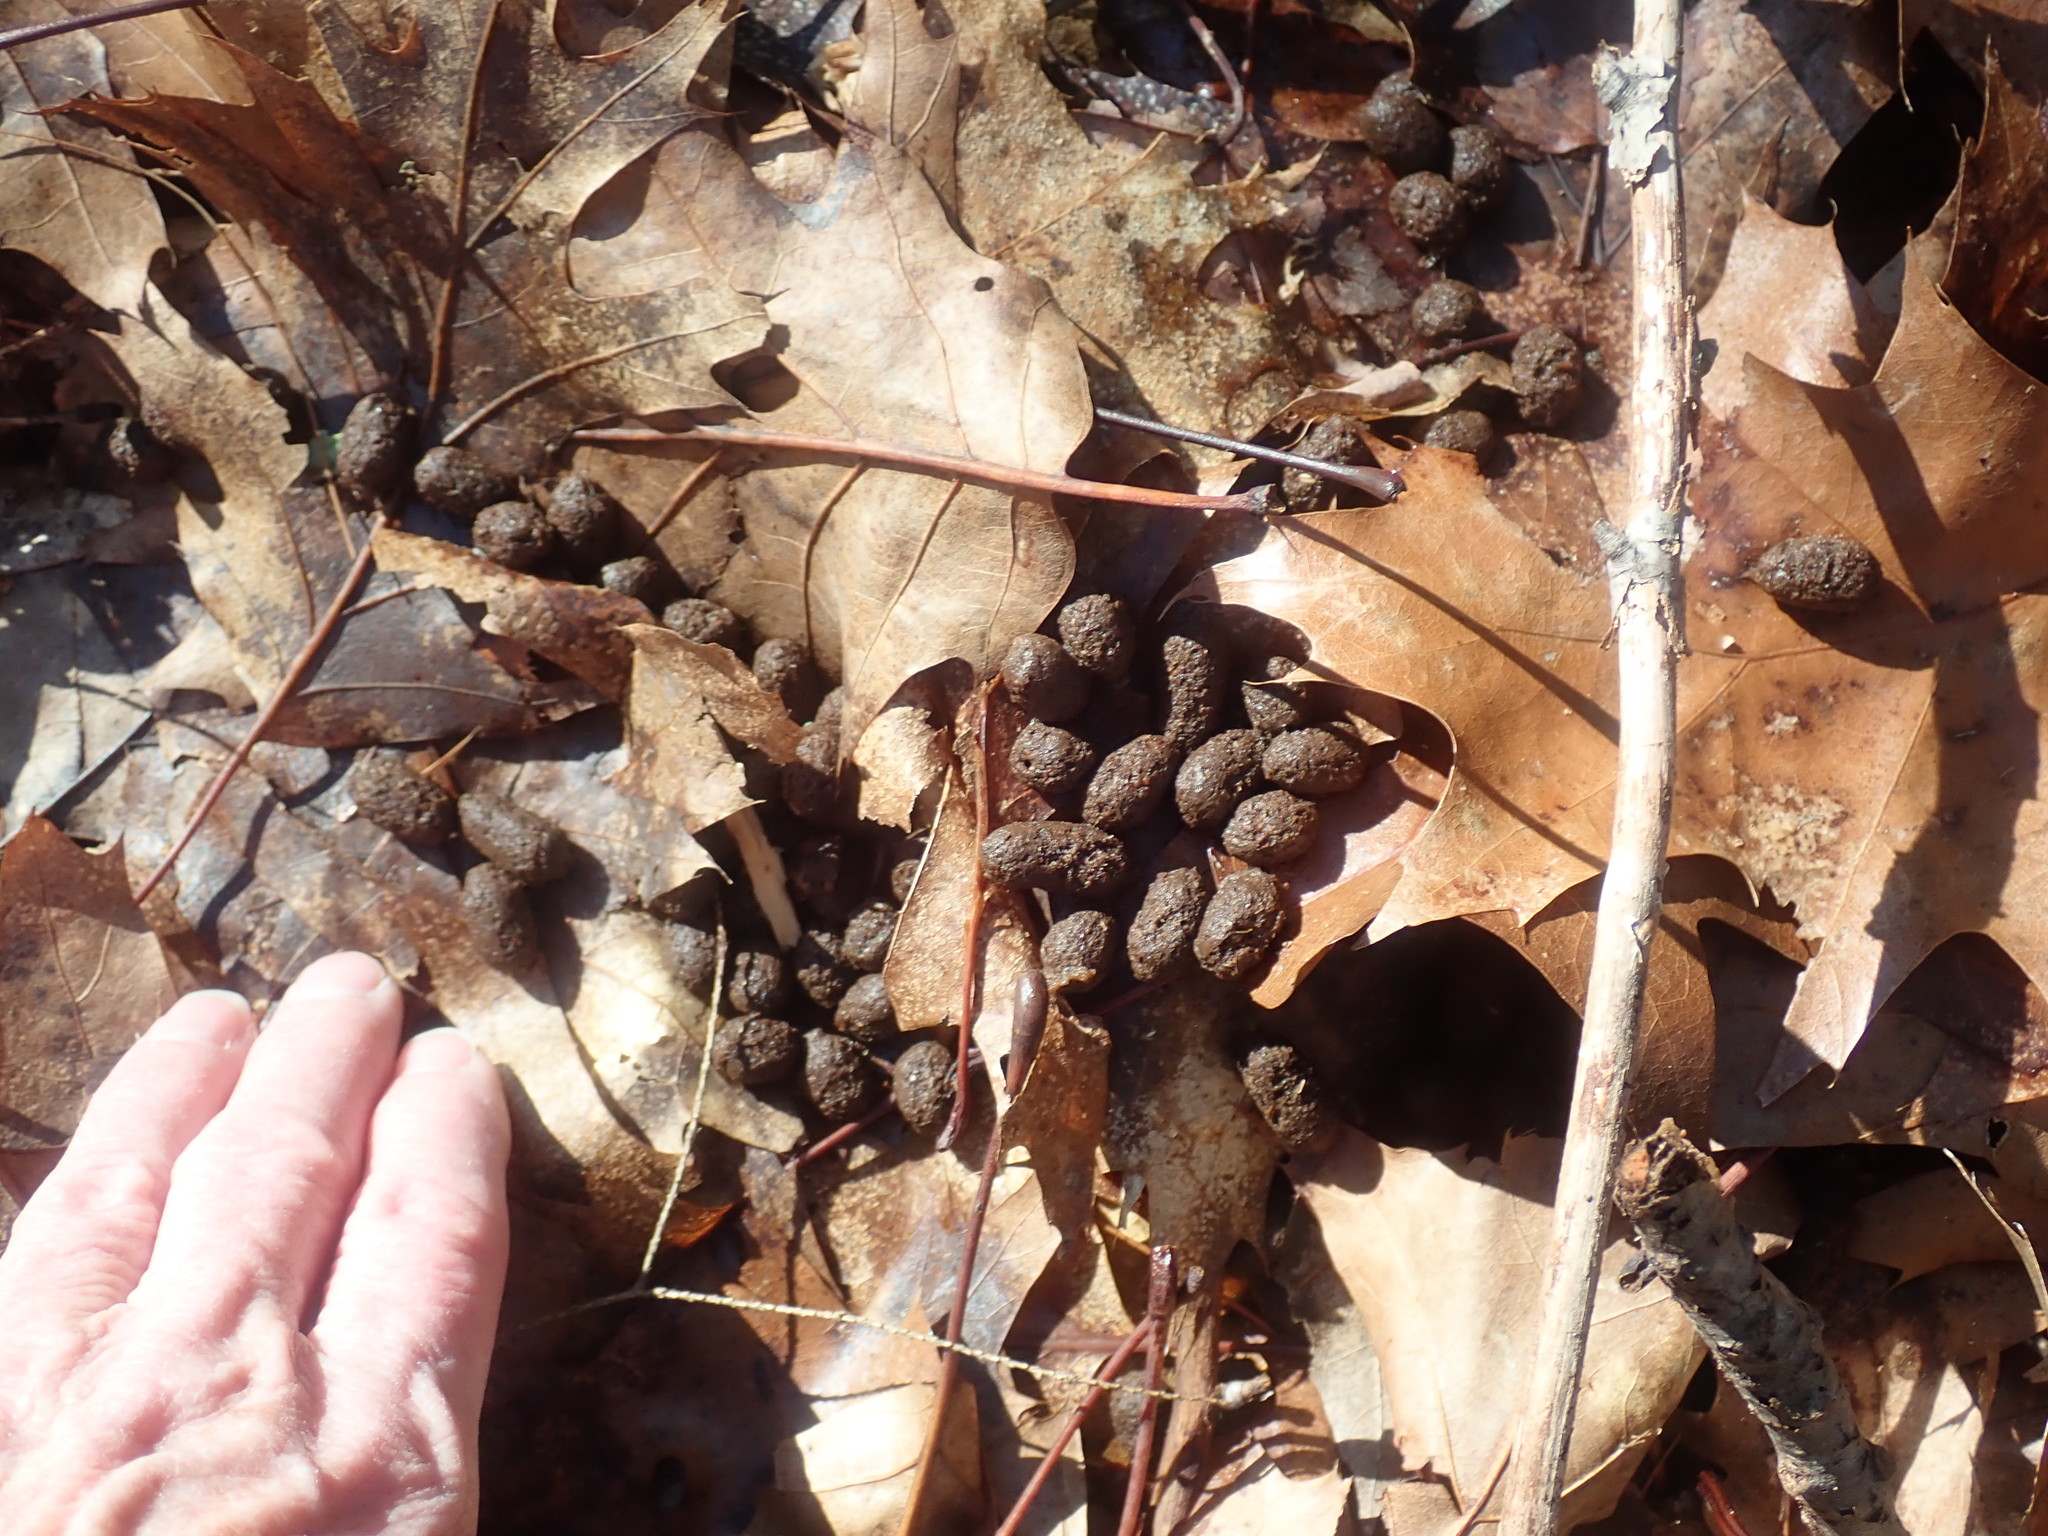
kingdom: Animalia
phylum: Chordata
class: Mammalia
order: Artiodactyla
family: Cervidae
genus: Odocoileus
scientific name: Odocoileus virginianus
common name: White-tailed deer
